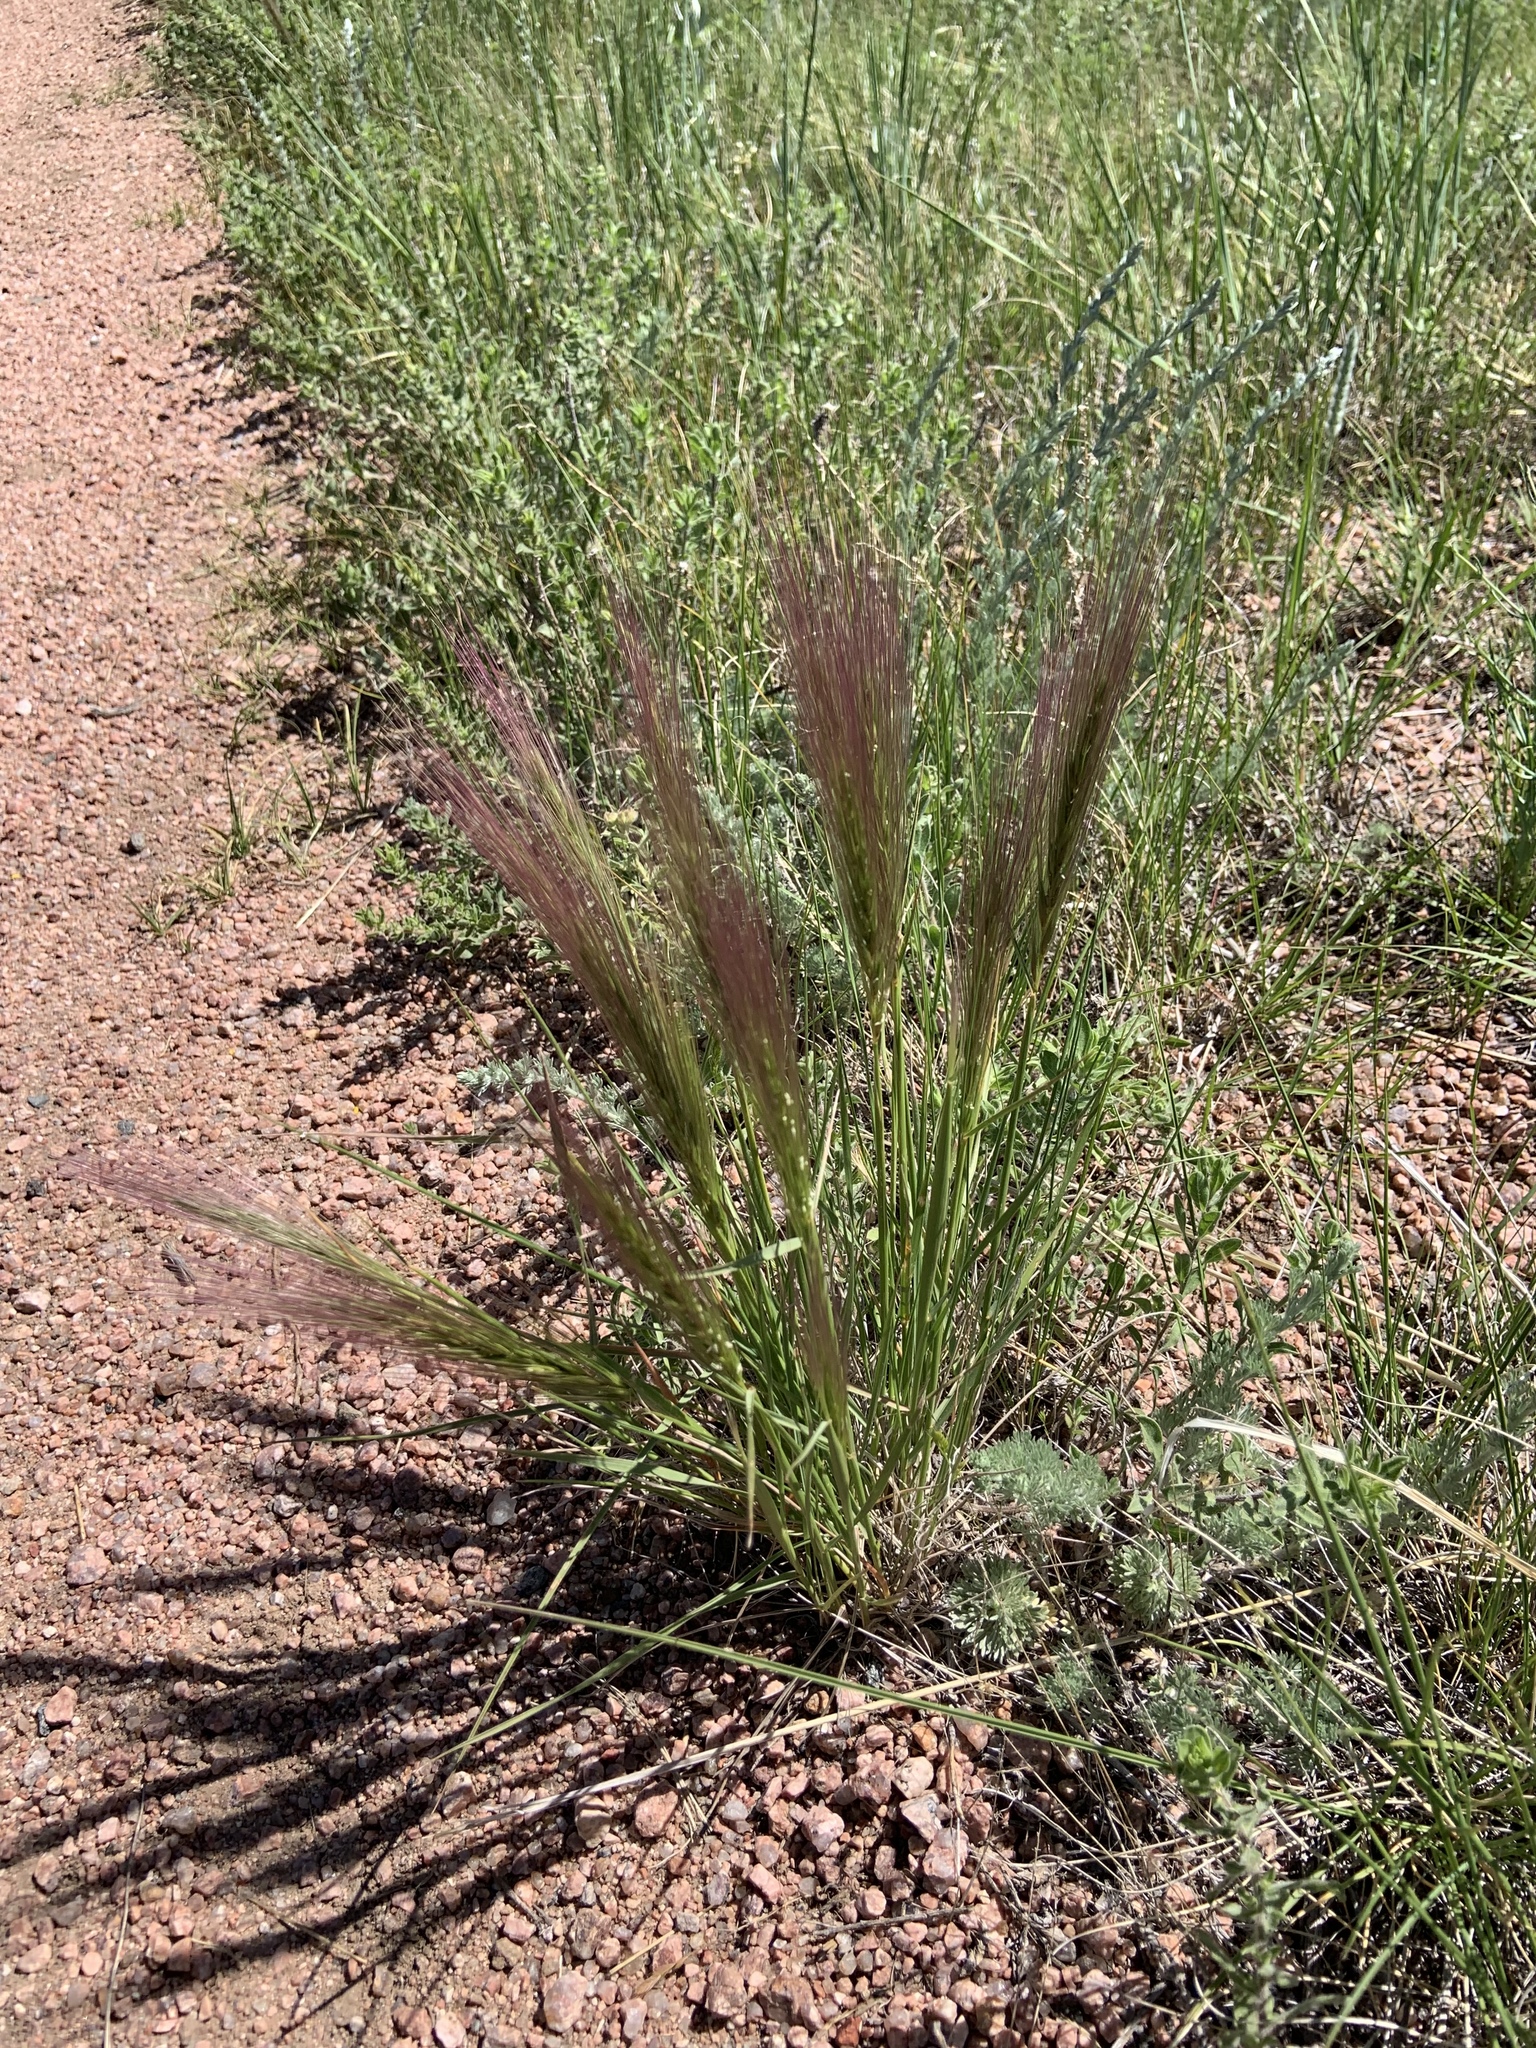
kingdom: Plantae
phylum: Tracheophyta
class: Liliopsida
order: Poales
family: Poaceae
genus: Elymus
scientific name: Elymus elymoides
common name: Bottlebrush squirreltail
